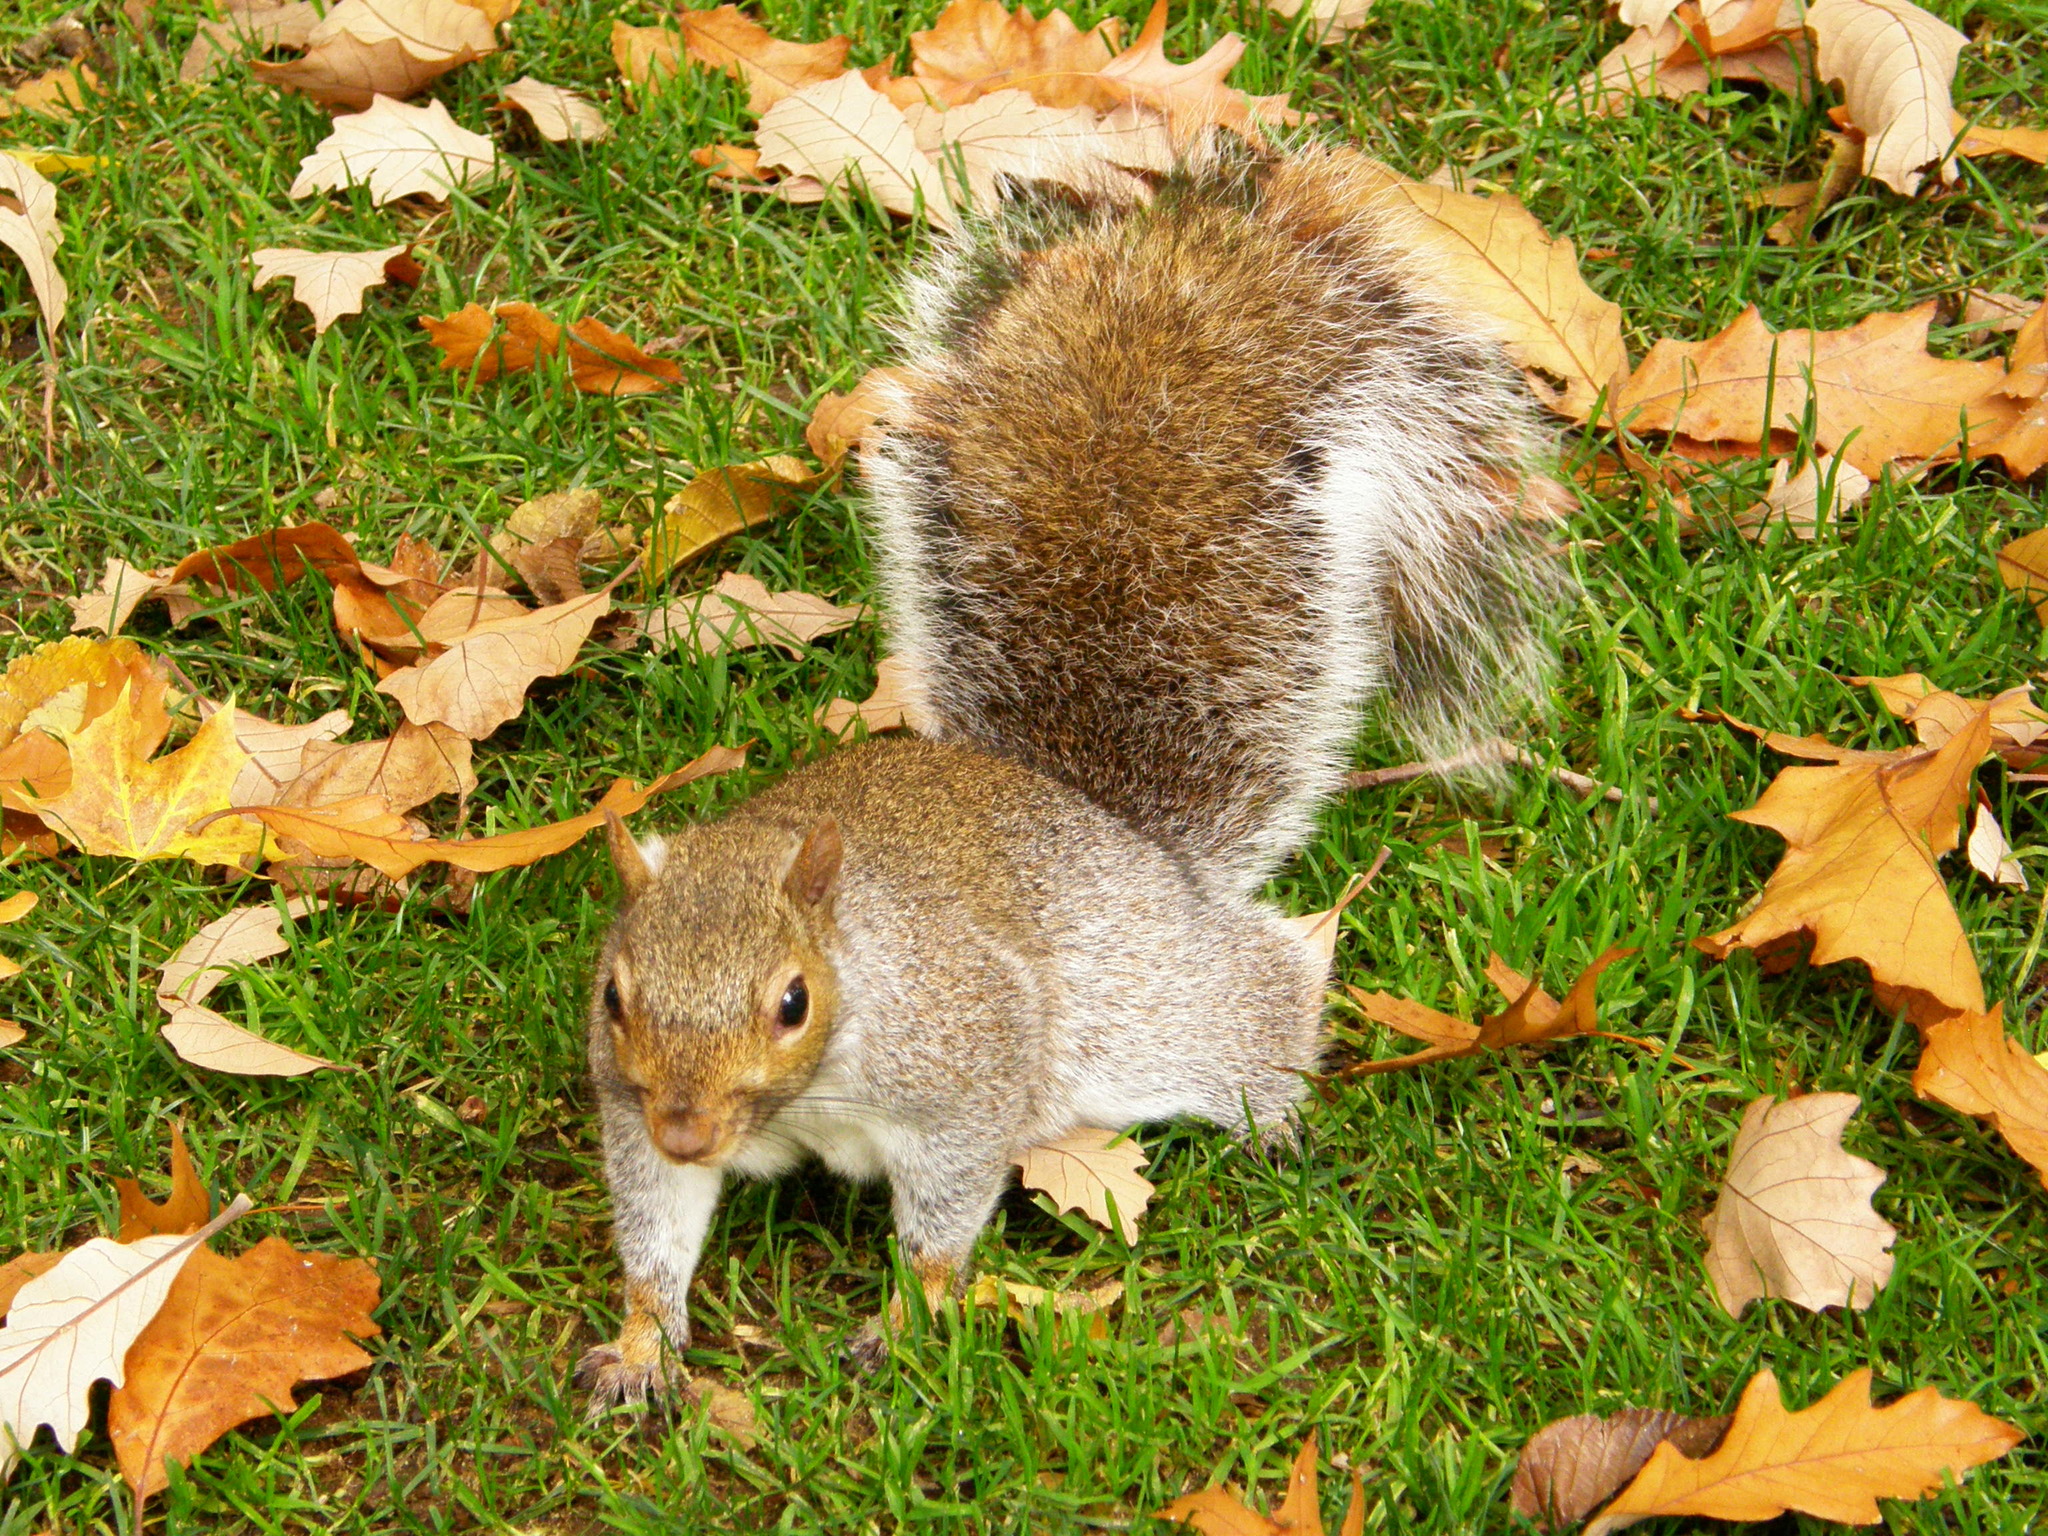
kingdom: Animalia
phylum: Chordata
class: Mammalia
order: Rodentia
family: Sciuridae
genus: Sciurus
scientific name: Sciurus carolinensis
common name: Eastern gray squirrel
